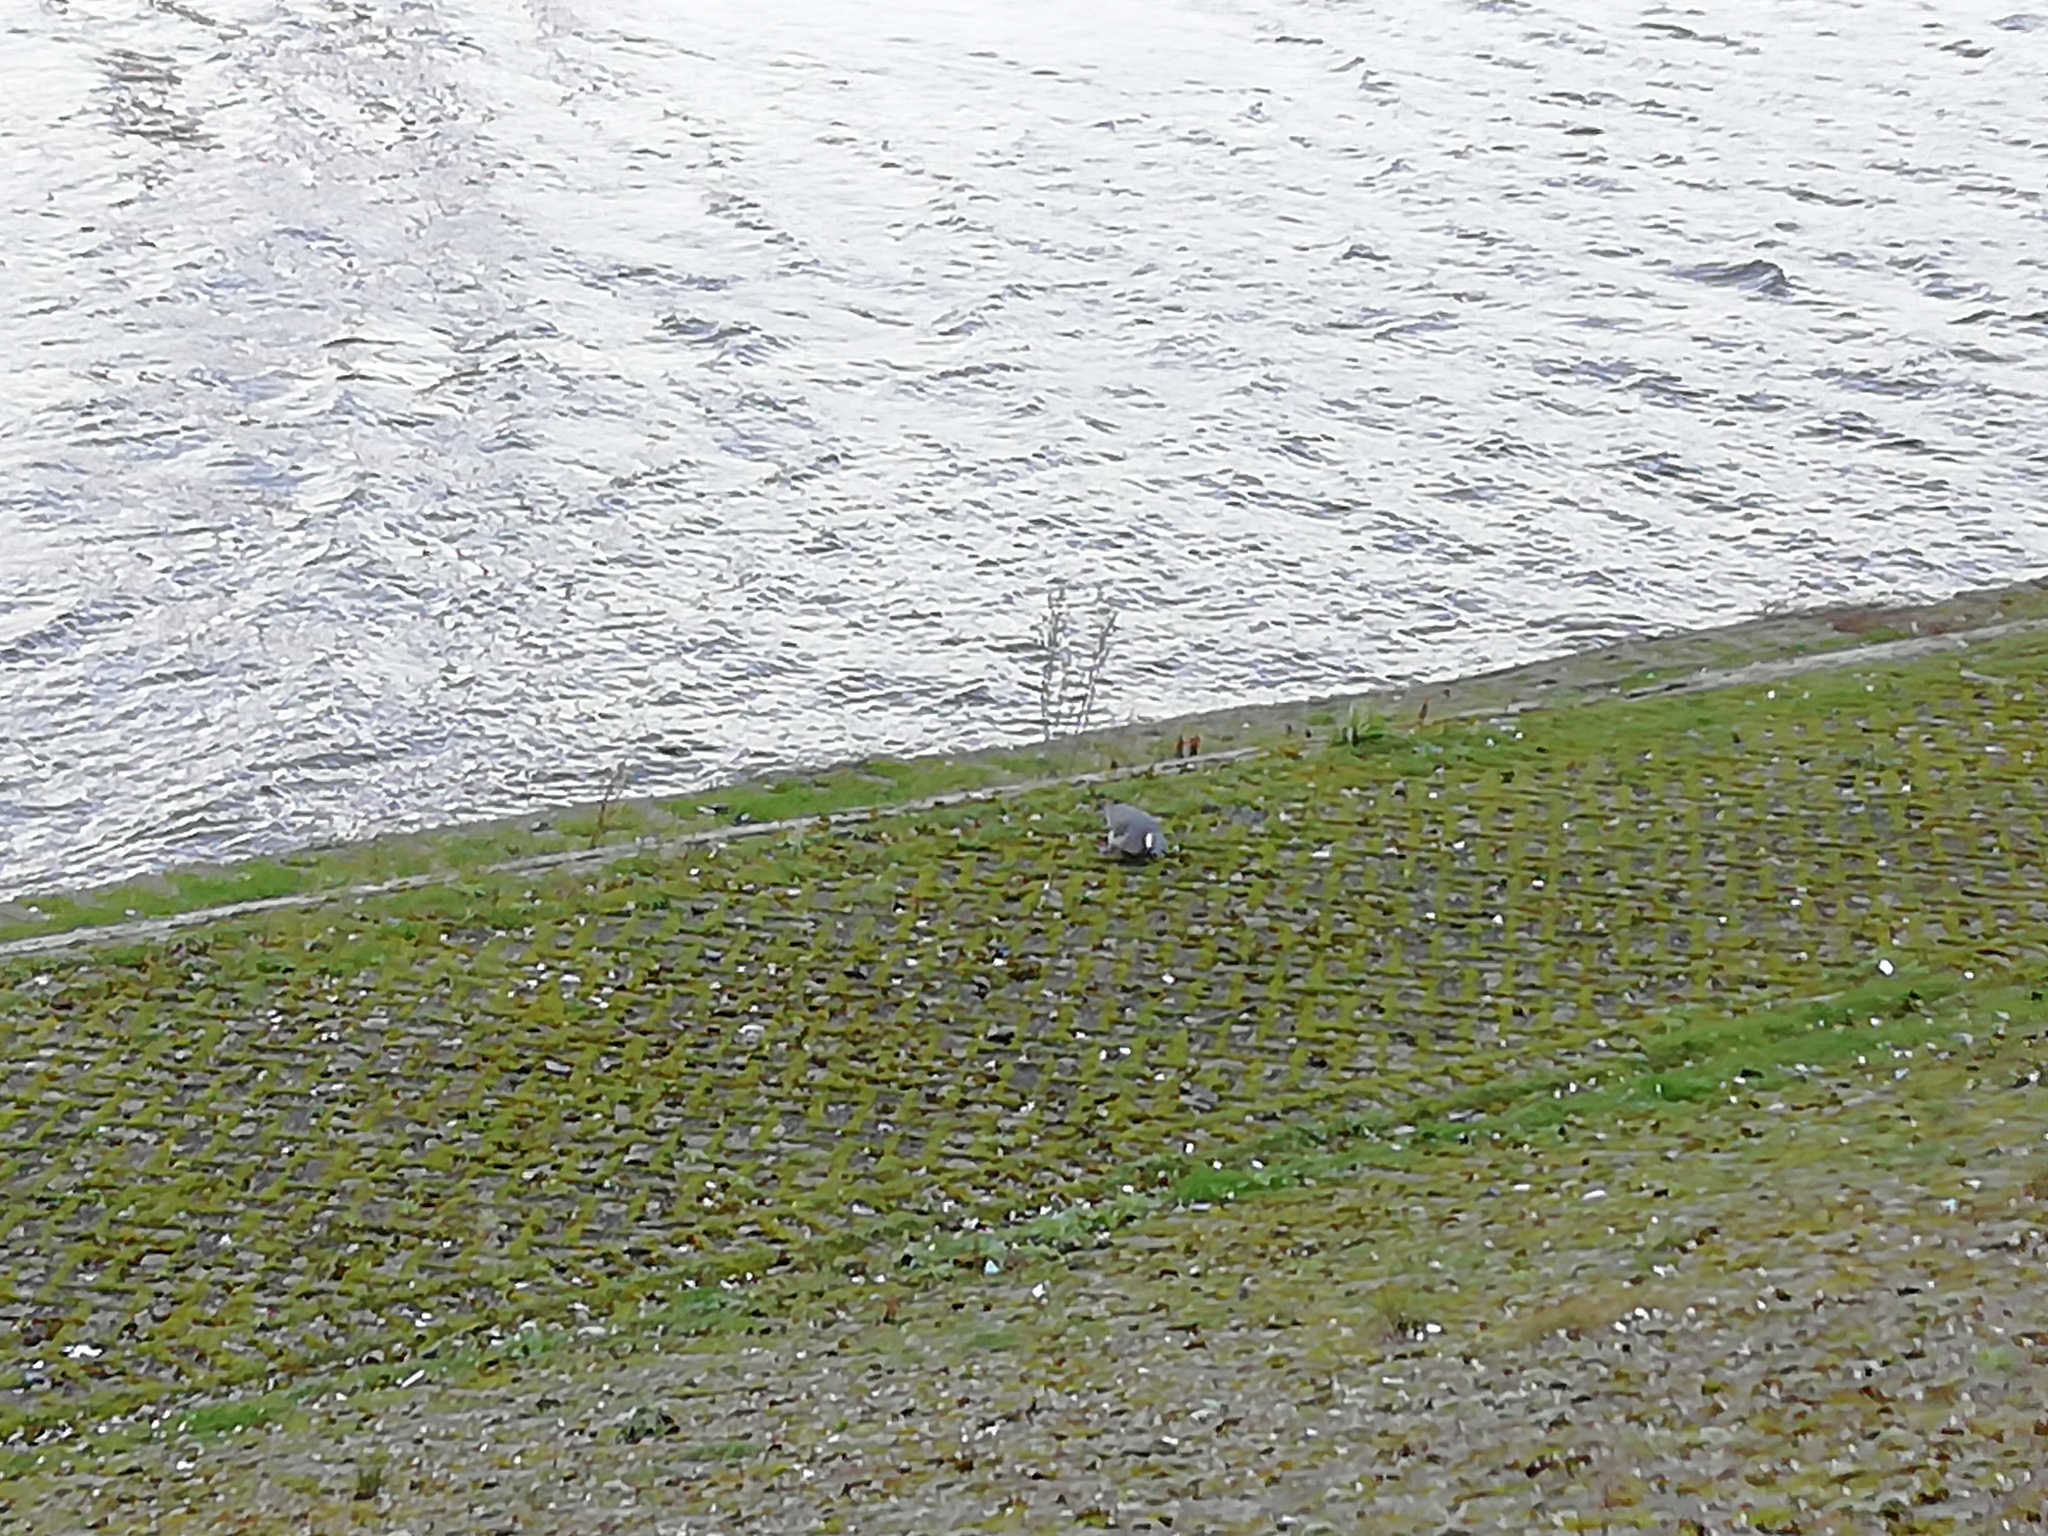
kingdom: Animalia
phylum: Chordata
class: Aves
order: Columbiformes
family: Columbidae
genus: Columba
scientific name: Columba palumbus
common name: Common wood pigeon
